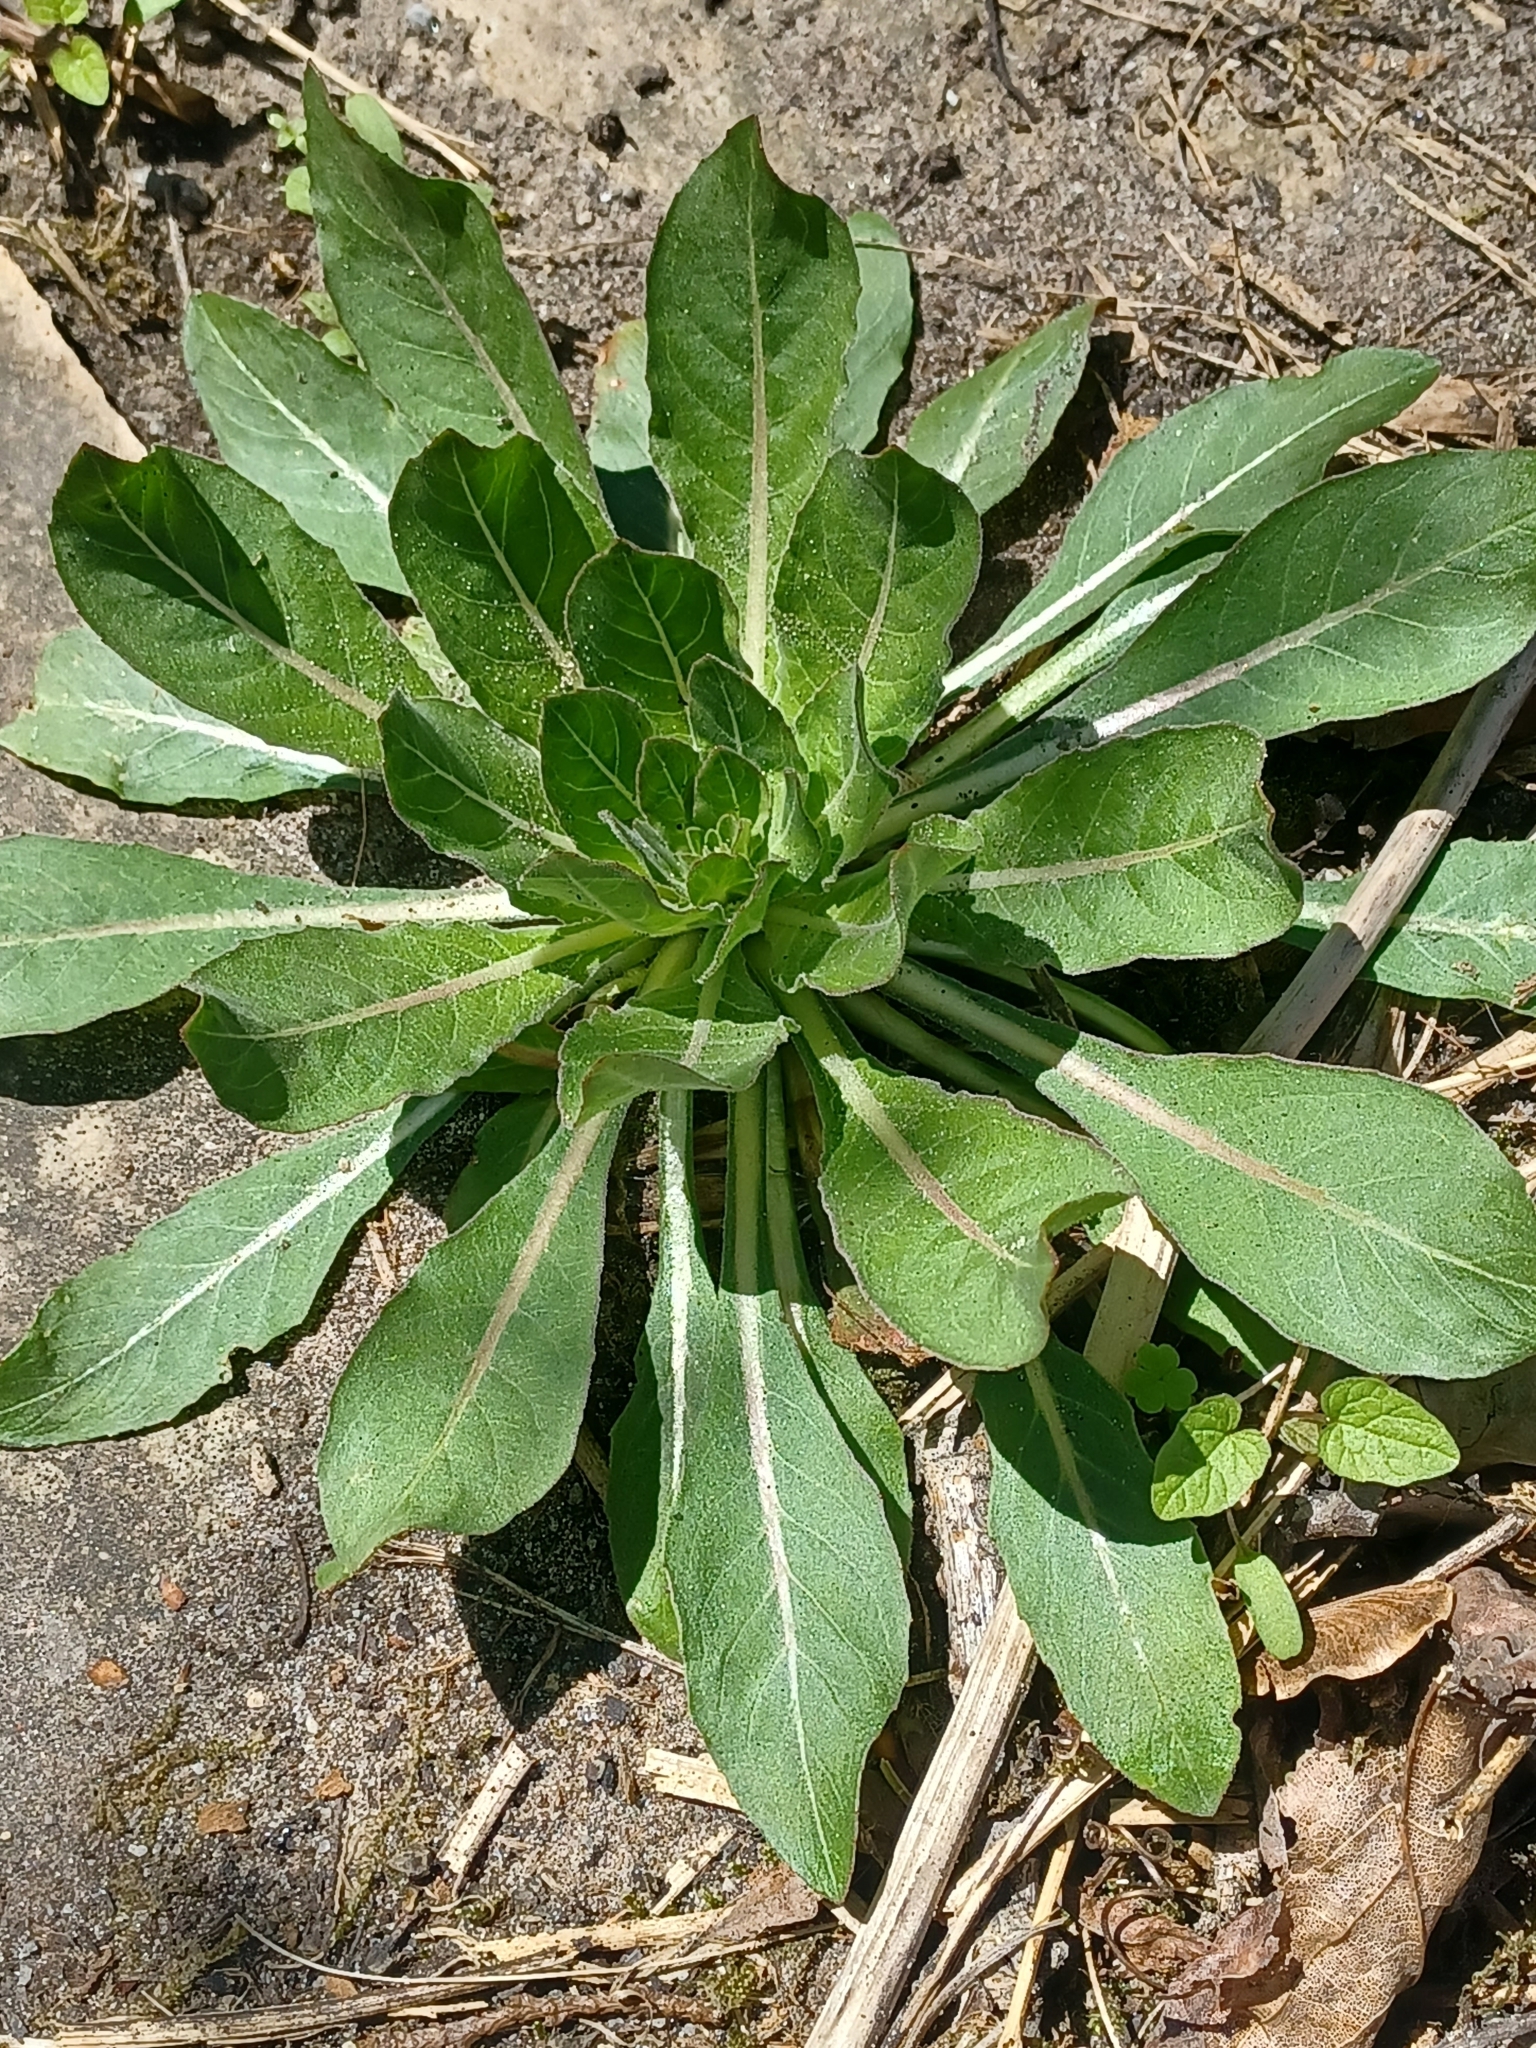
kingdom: Plantae
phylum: Tracheophyta
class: Magnoliopsida
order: Myrtales
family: Onagraceae
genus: Oenothera
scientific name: Oenothera biennis
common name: Common evening-primrose
